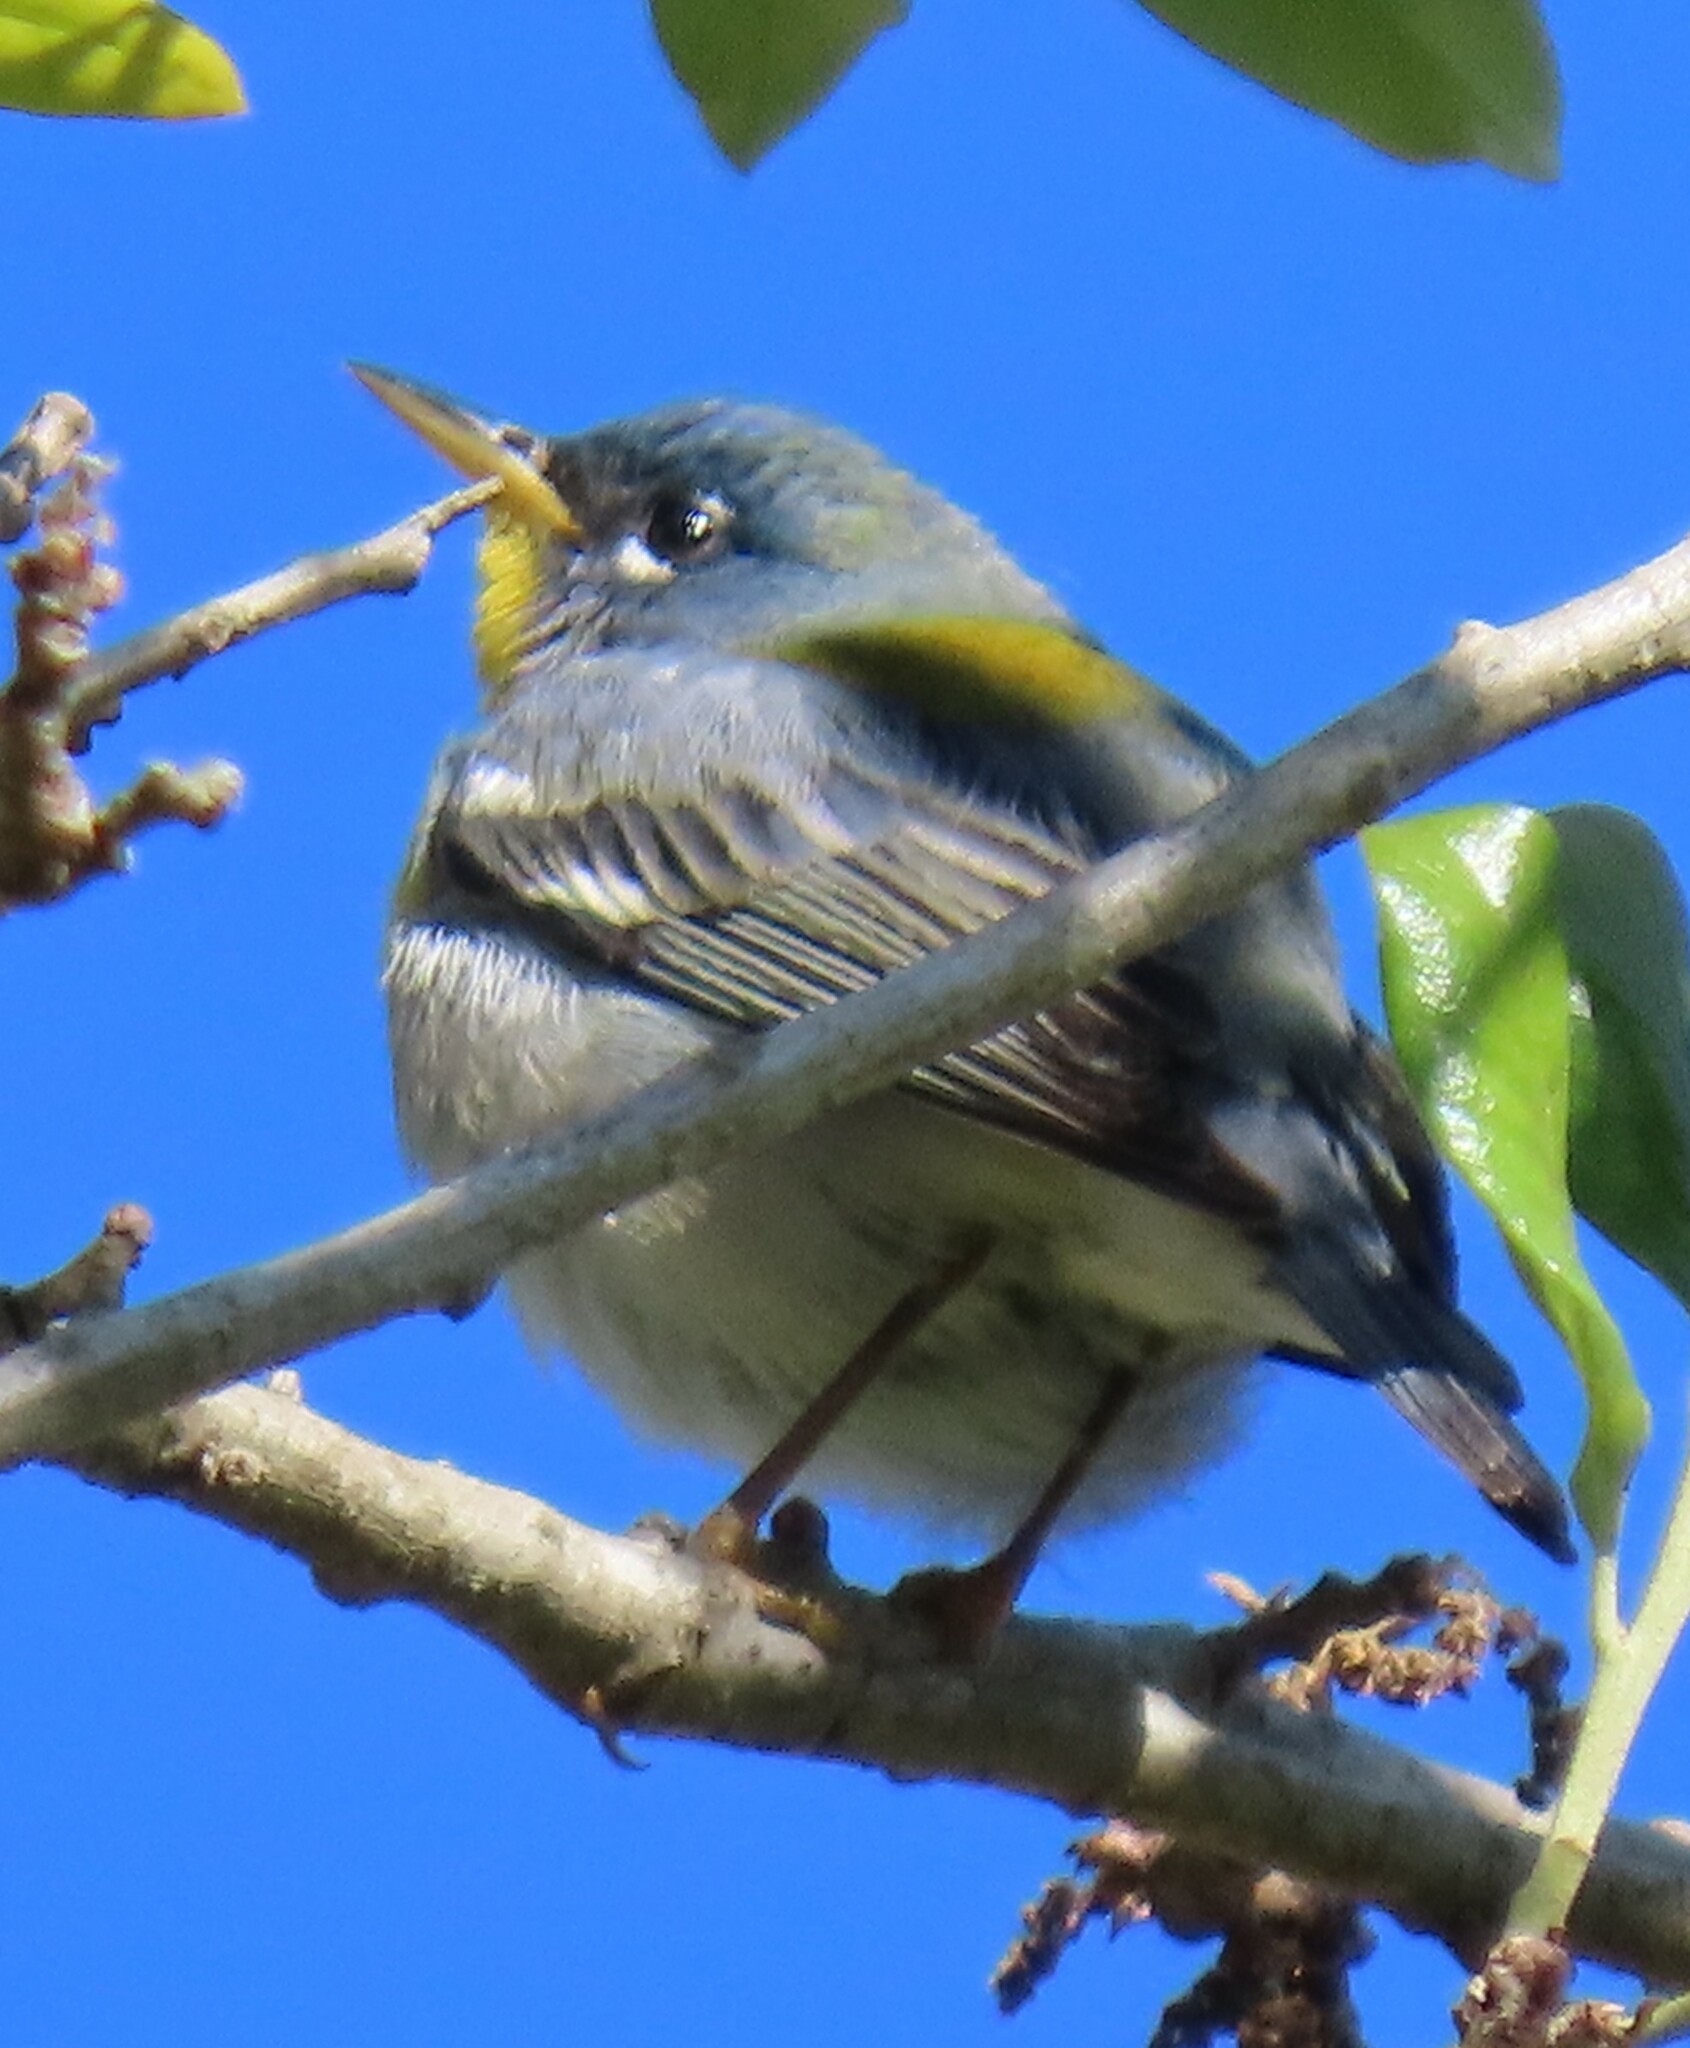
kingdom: Animalia
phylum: Chordata
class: Aves
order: Passeriformes
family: Parulidae
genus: Setophaga
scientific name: Setophaga americana
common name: Northern parula
